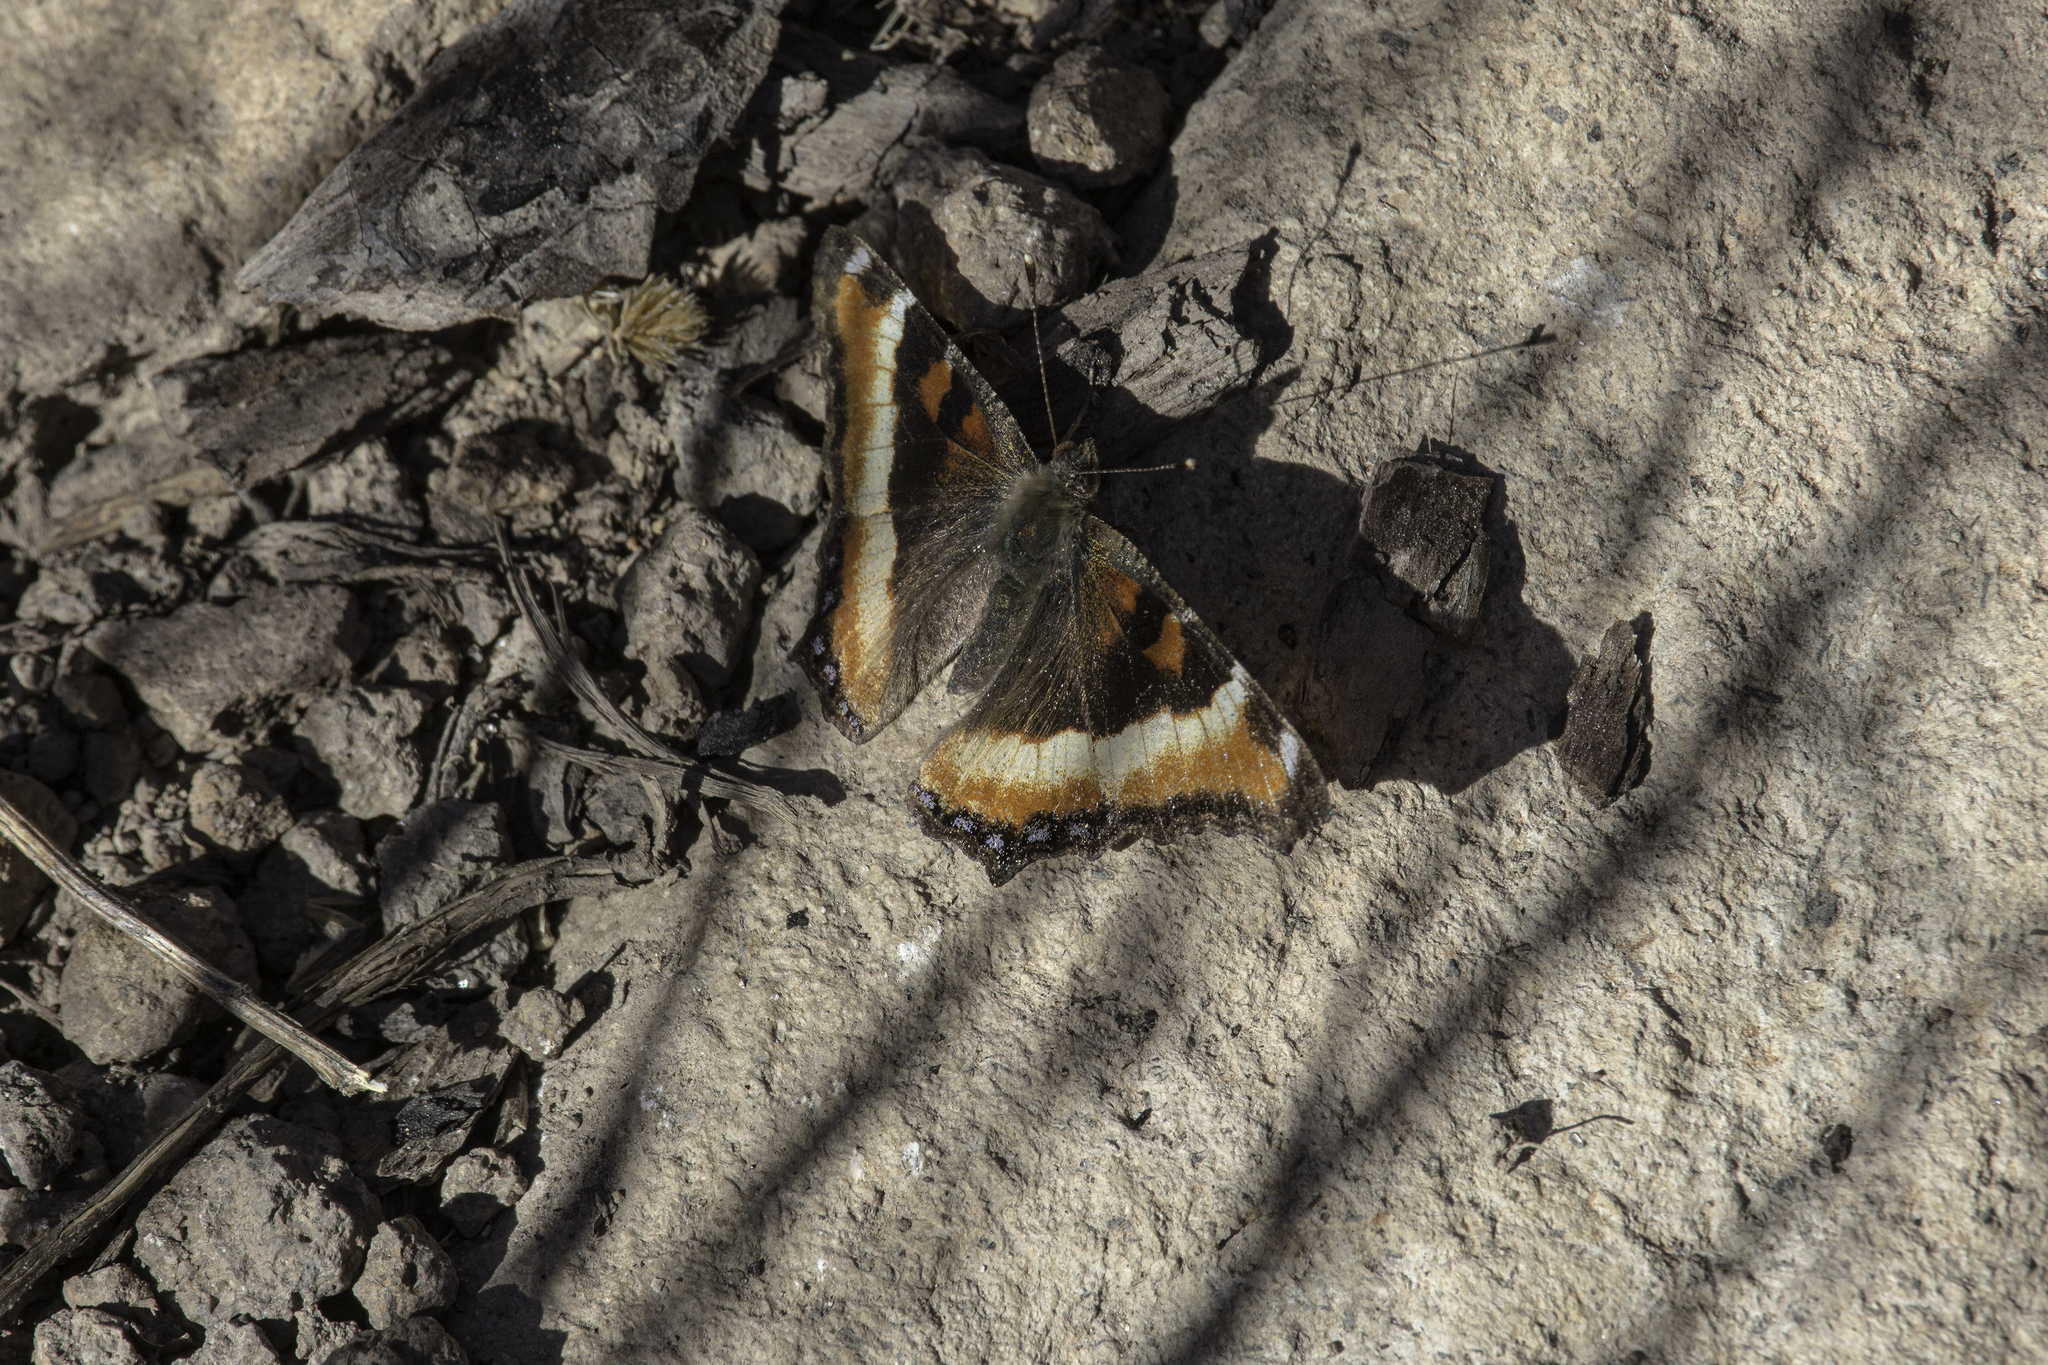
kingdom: Animalia
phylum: Arthropoda
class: Insecta
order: Lepidoptera
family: Nymphalidae
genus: Aglais
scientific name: Aglais milberti
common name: Milbert's tortoiseshell
